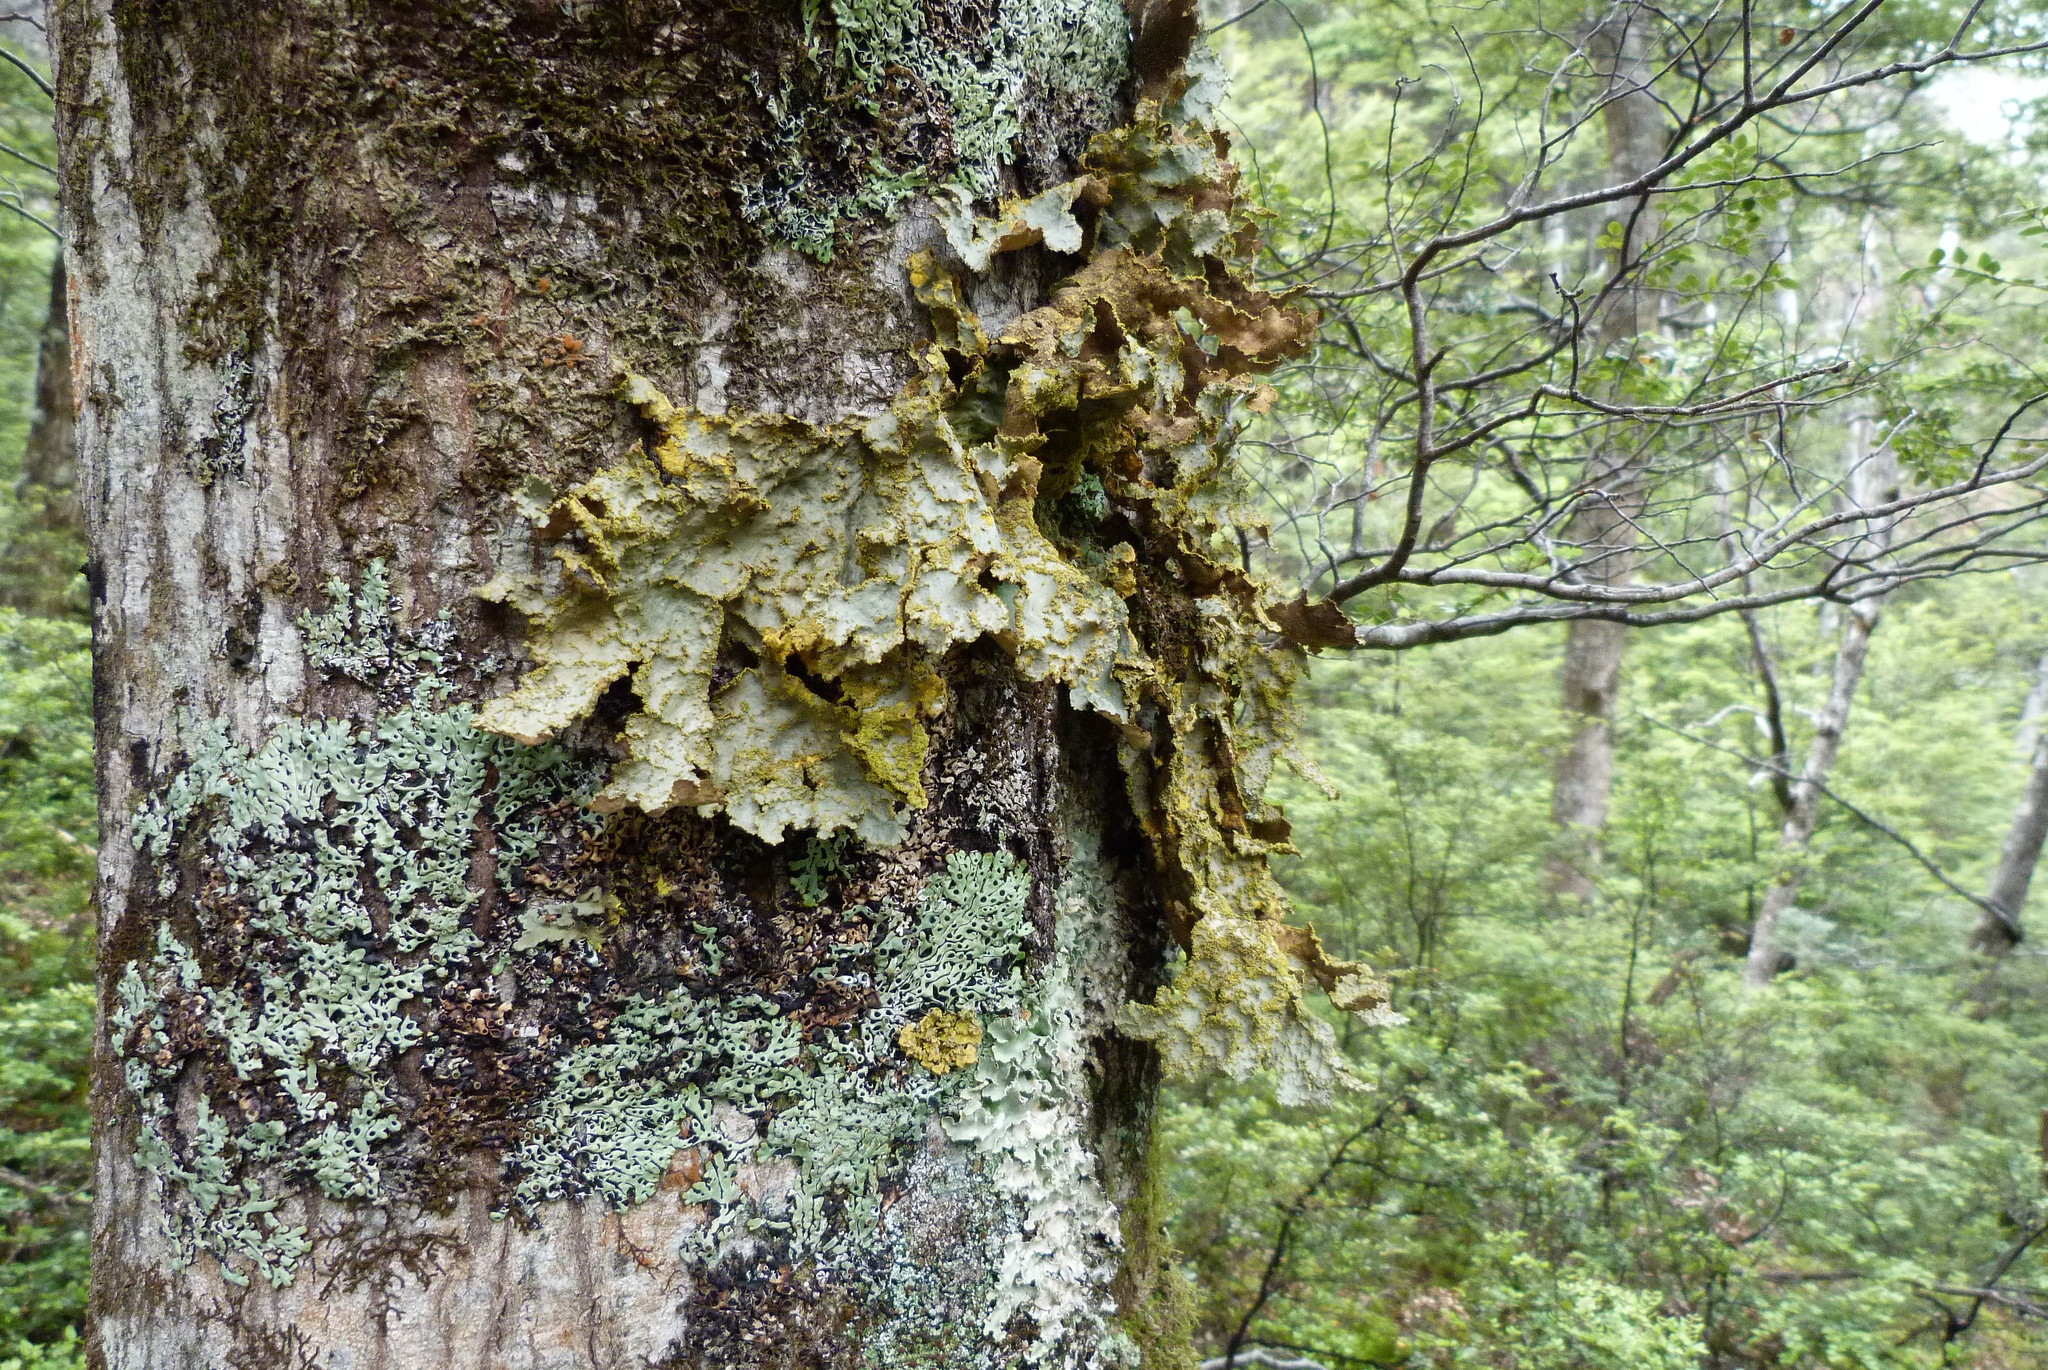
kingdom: Fungi
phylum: Ascomycota
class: Lecanoromycetes
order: Peltigerales
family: Lobariaceae
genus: Yarrumia
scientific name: Yarrumia colensoi
